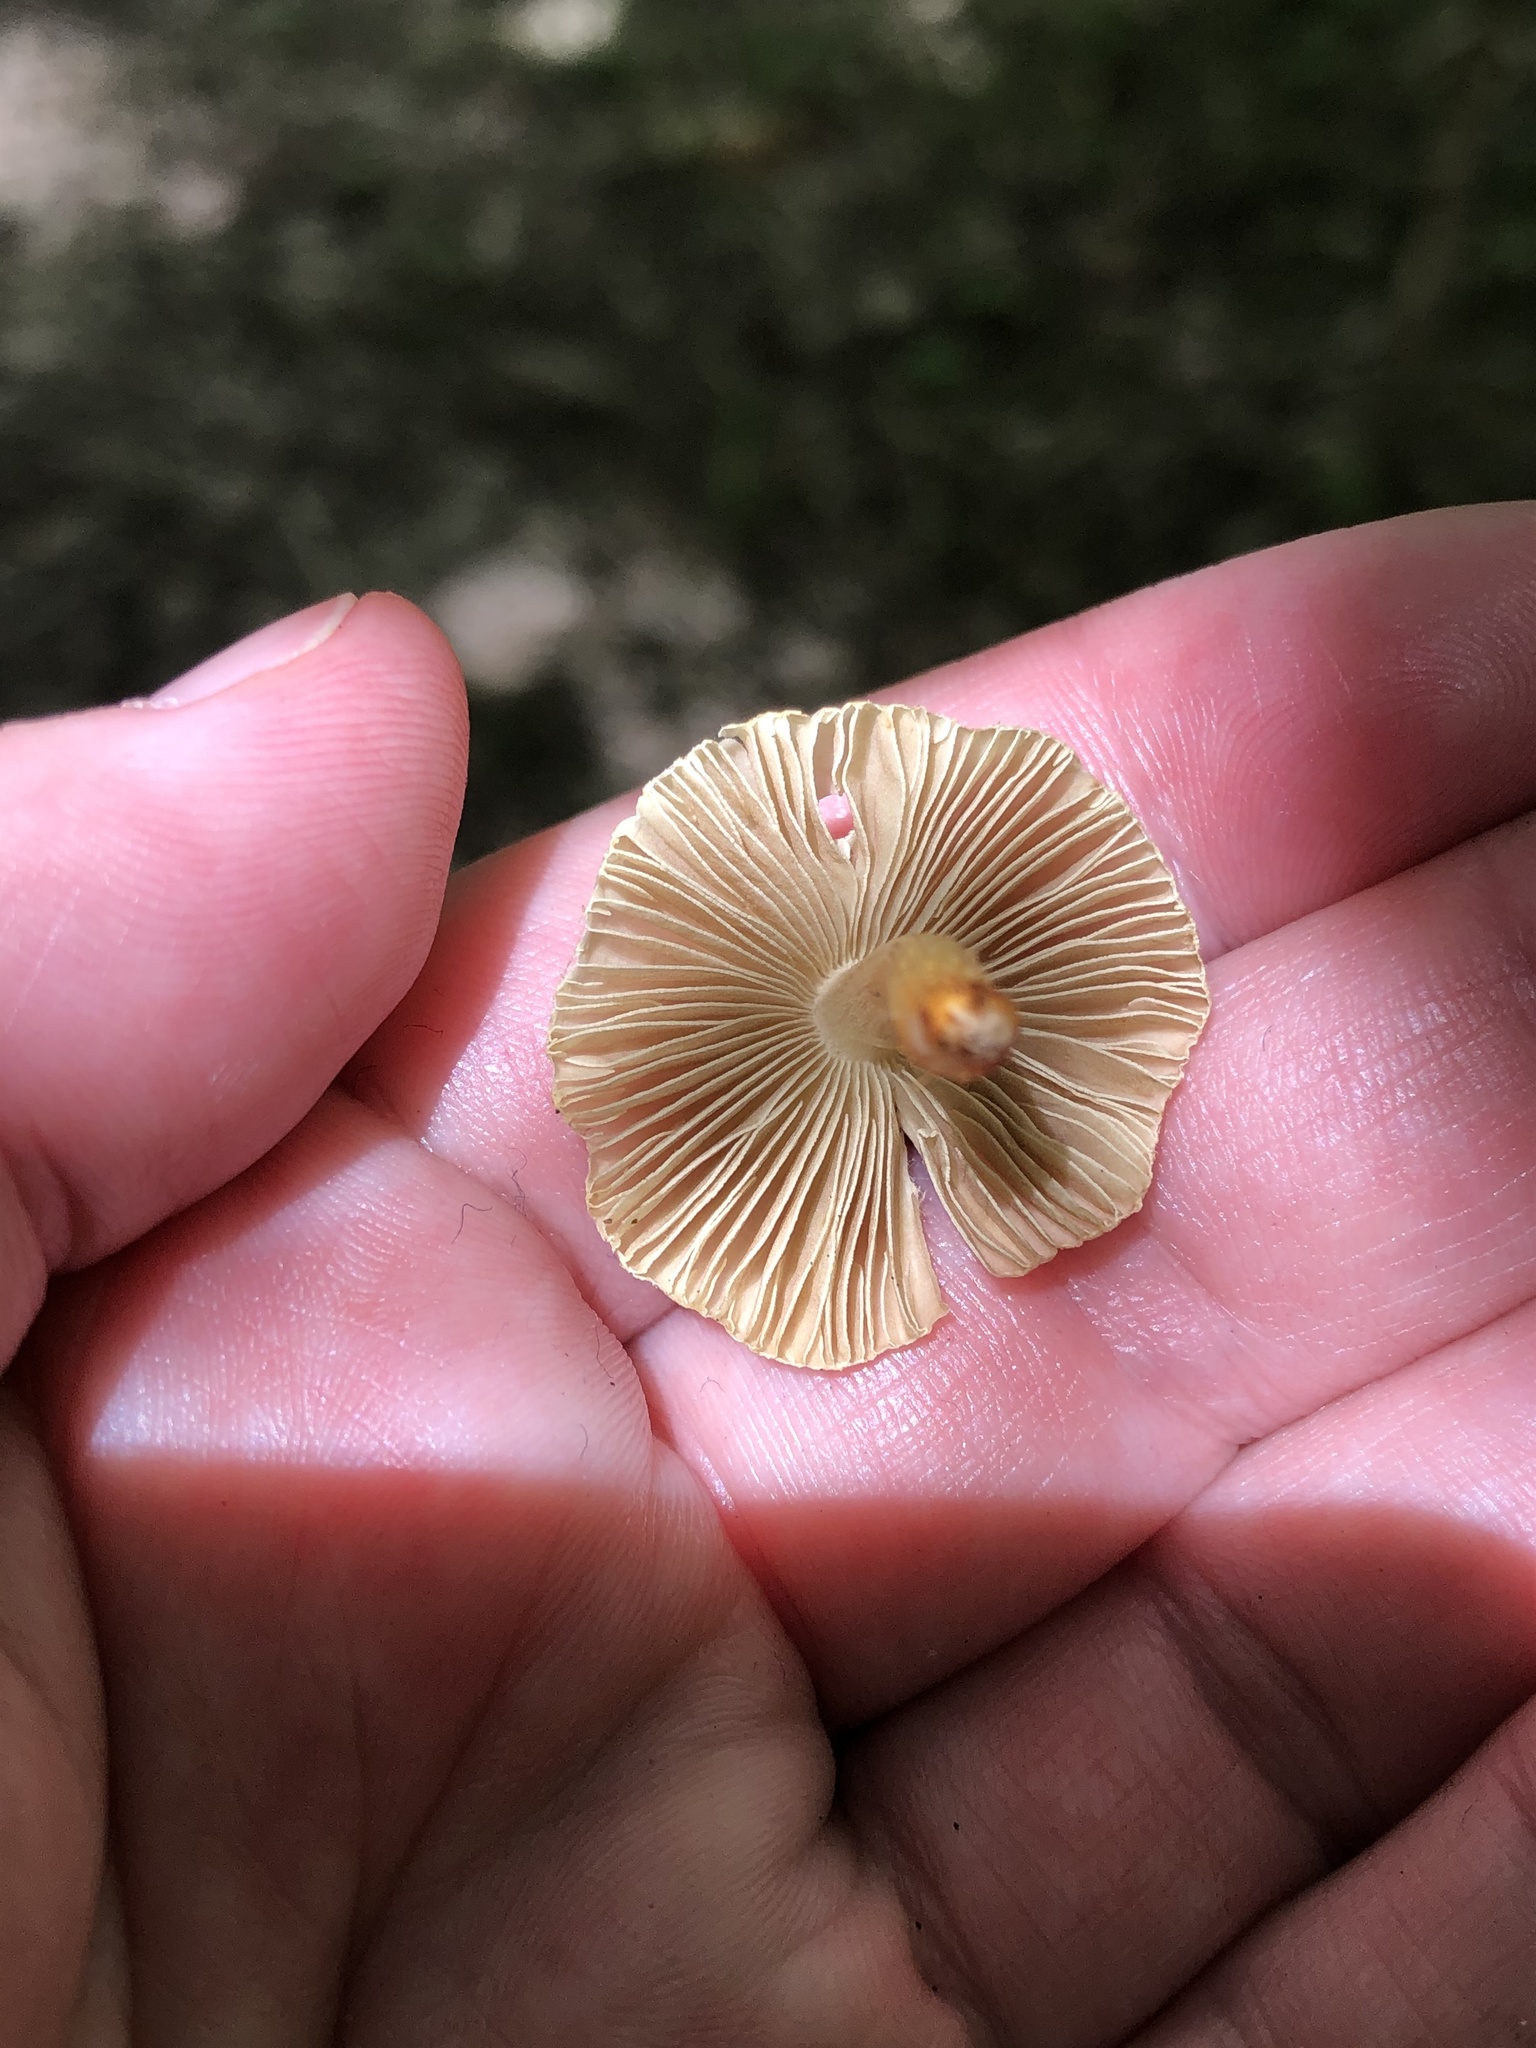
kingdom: Fungi
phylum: Basidiomycota
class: Agaricomycetes
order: Agaricales
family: Inocybaceae
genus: Pseudosperma
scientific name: Pseudosperma friabile
